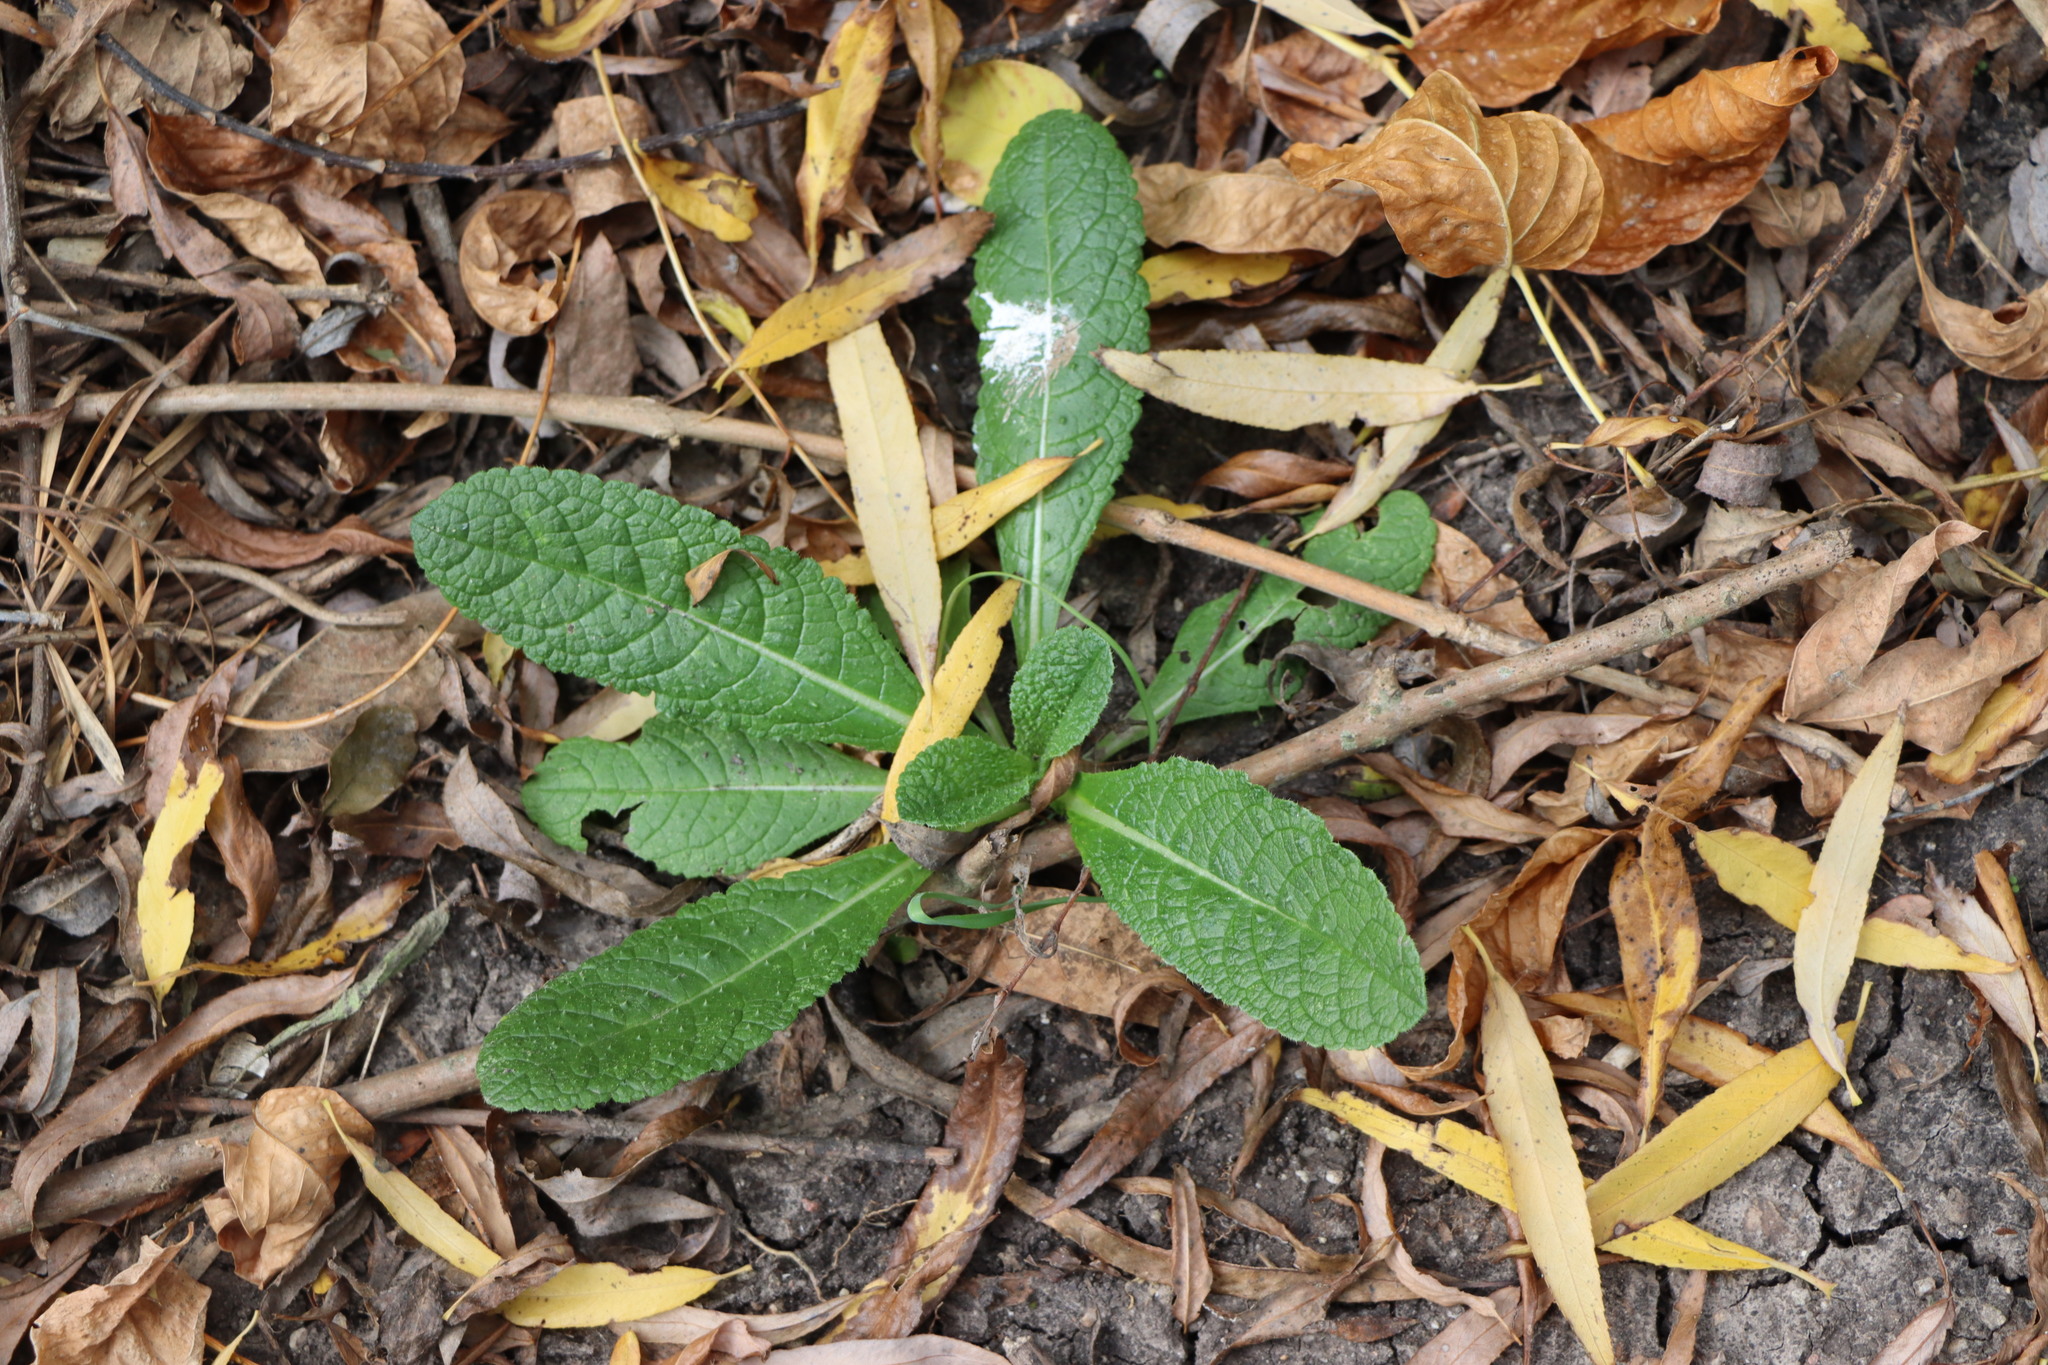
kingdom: Plantae
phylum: Tracheophyta
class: Magnoliopsida
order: Dipsacales
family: Caprifoliaceae
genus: Dipsacus
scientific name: Dipsacus fullonum
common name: Teasel
